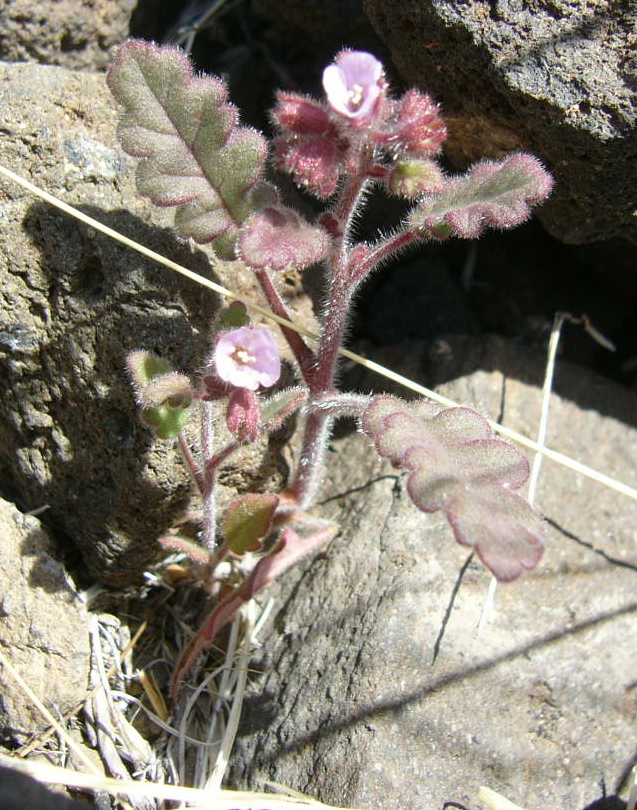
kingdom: Plantae
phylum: Tracheophyta
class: Magnoliopsida
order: Boraginales
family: Hydrophyllaceae
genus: Phacelia
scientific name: Phacelia coerulea
